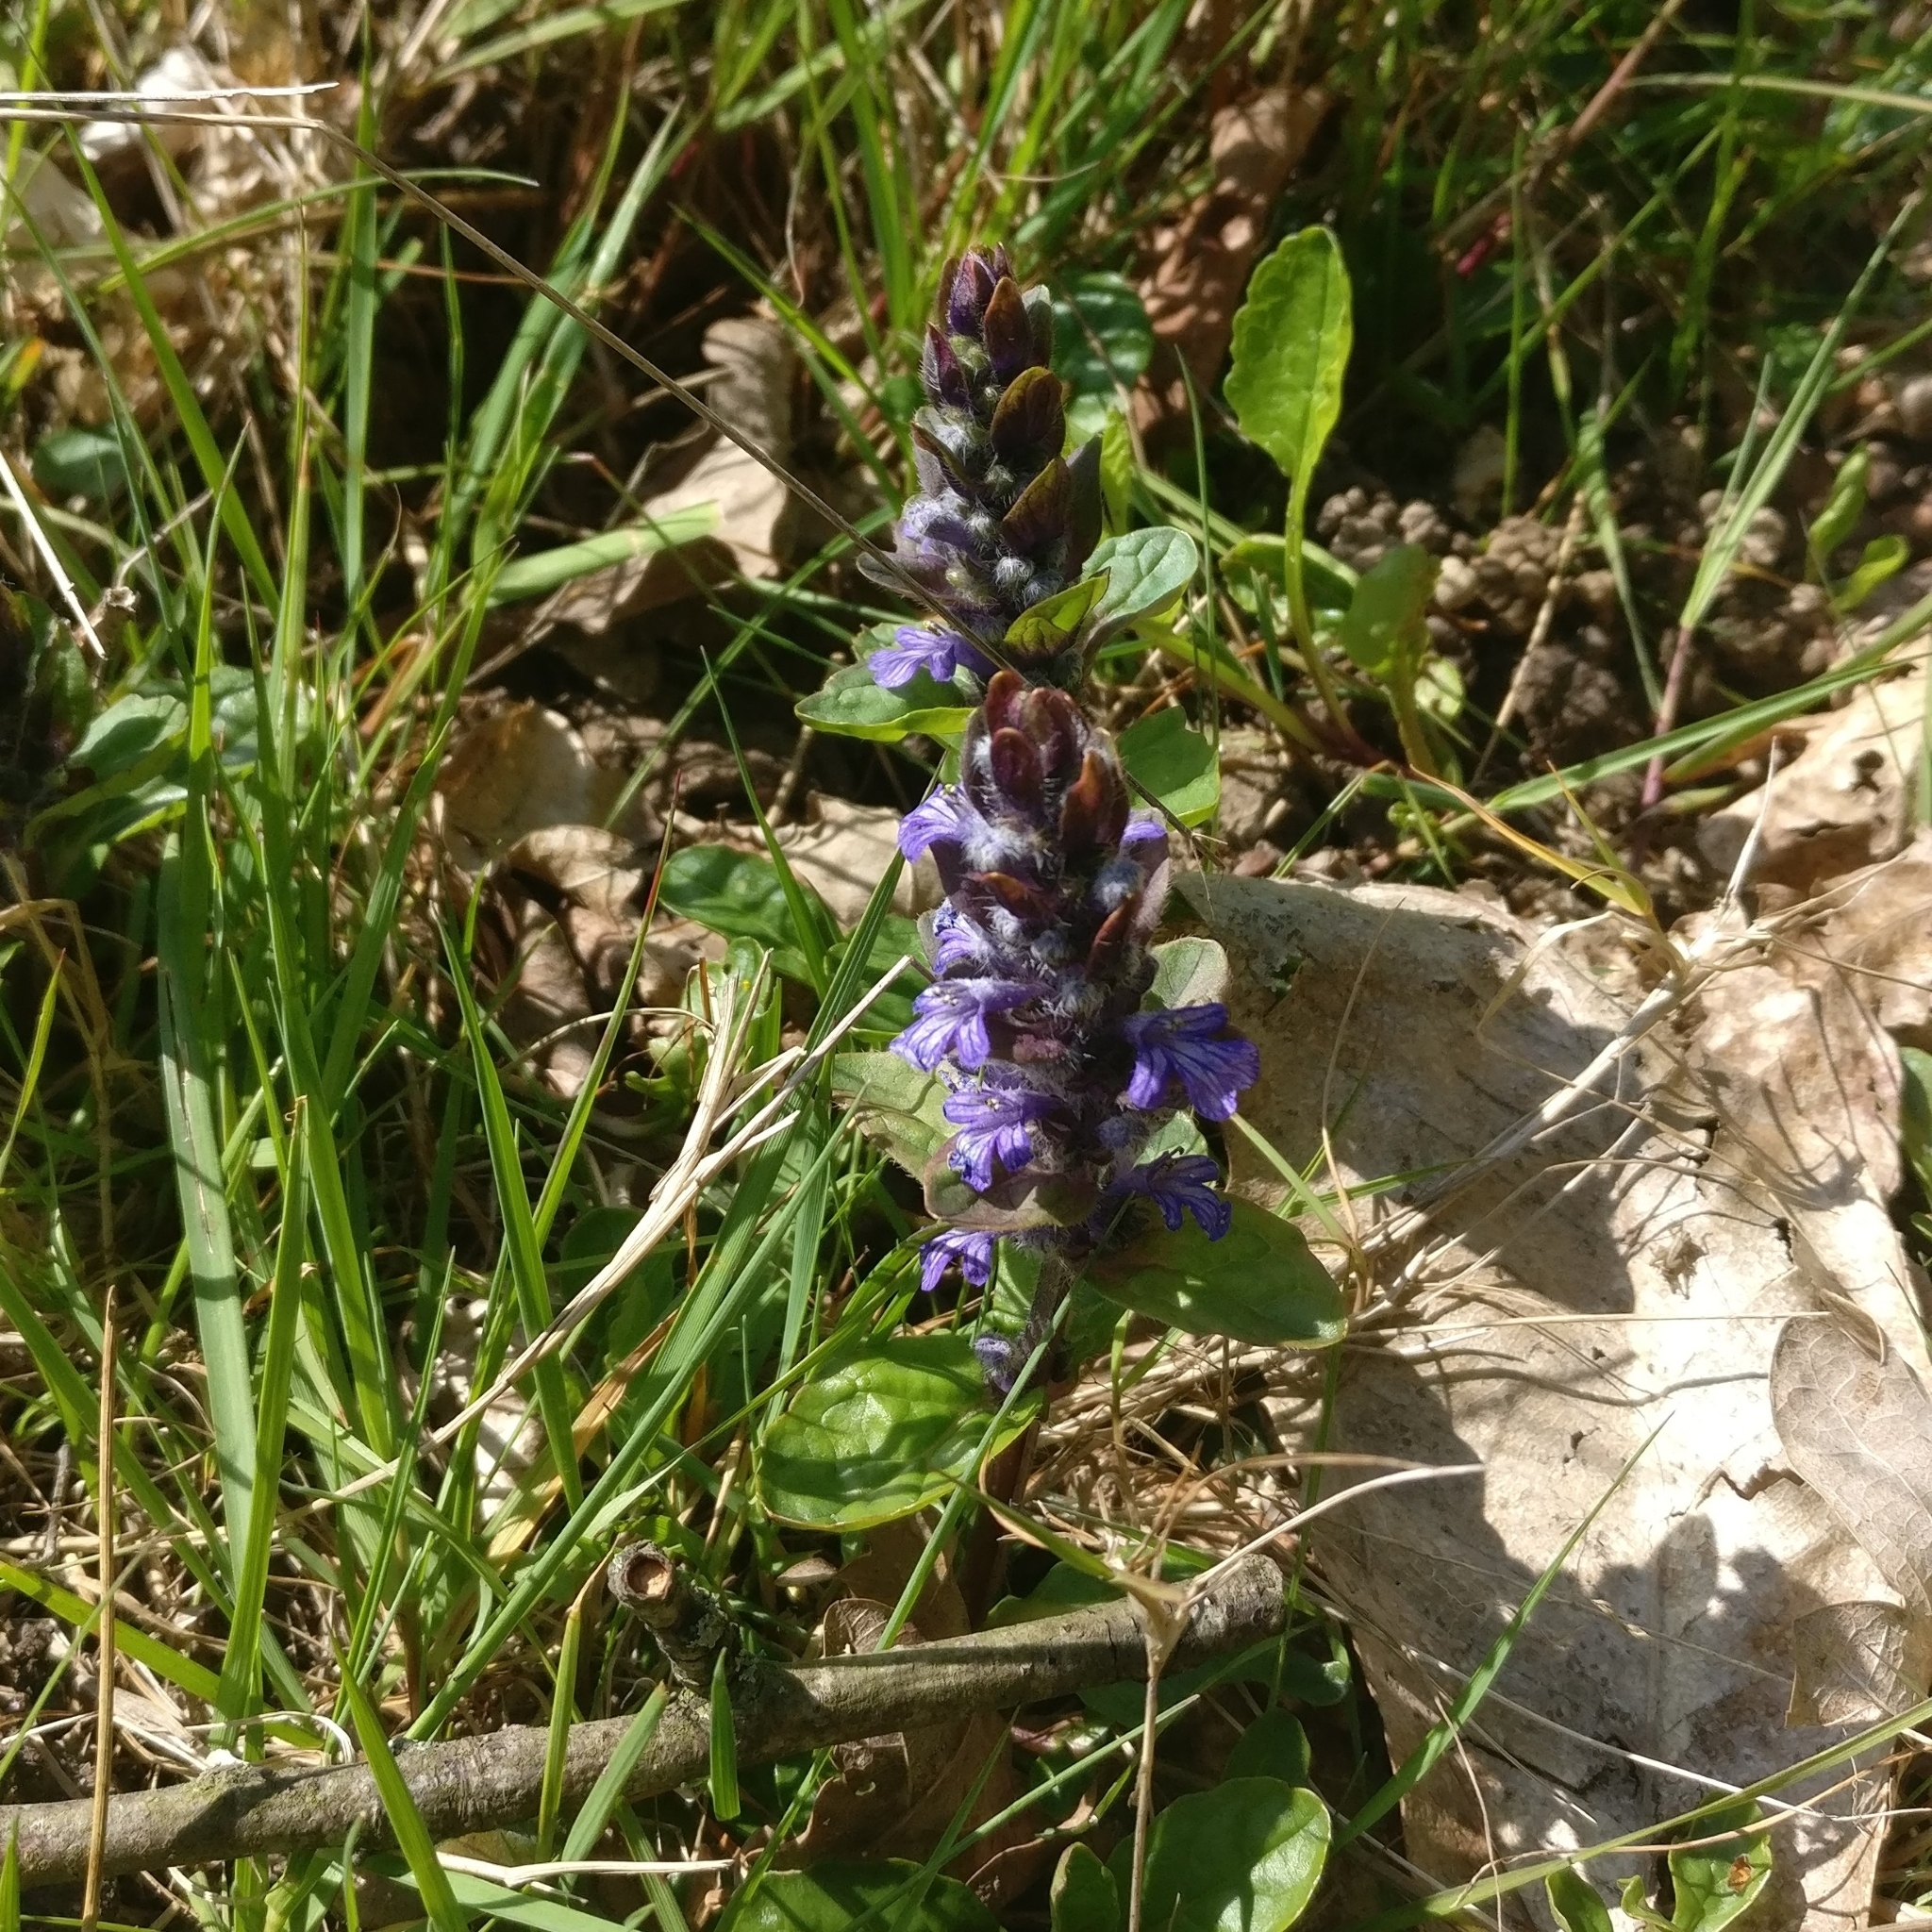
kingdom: Plantae
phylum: Tracheophyta
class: Magnoliopsida
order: Lamiales
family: Lamiaceae
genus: Ajuga
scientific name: Ajuga reptans
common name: Bugle
